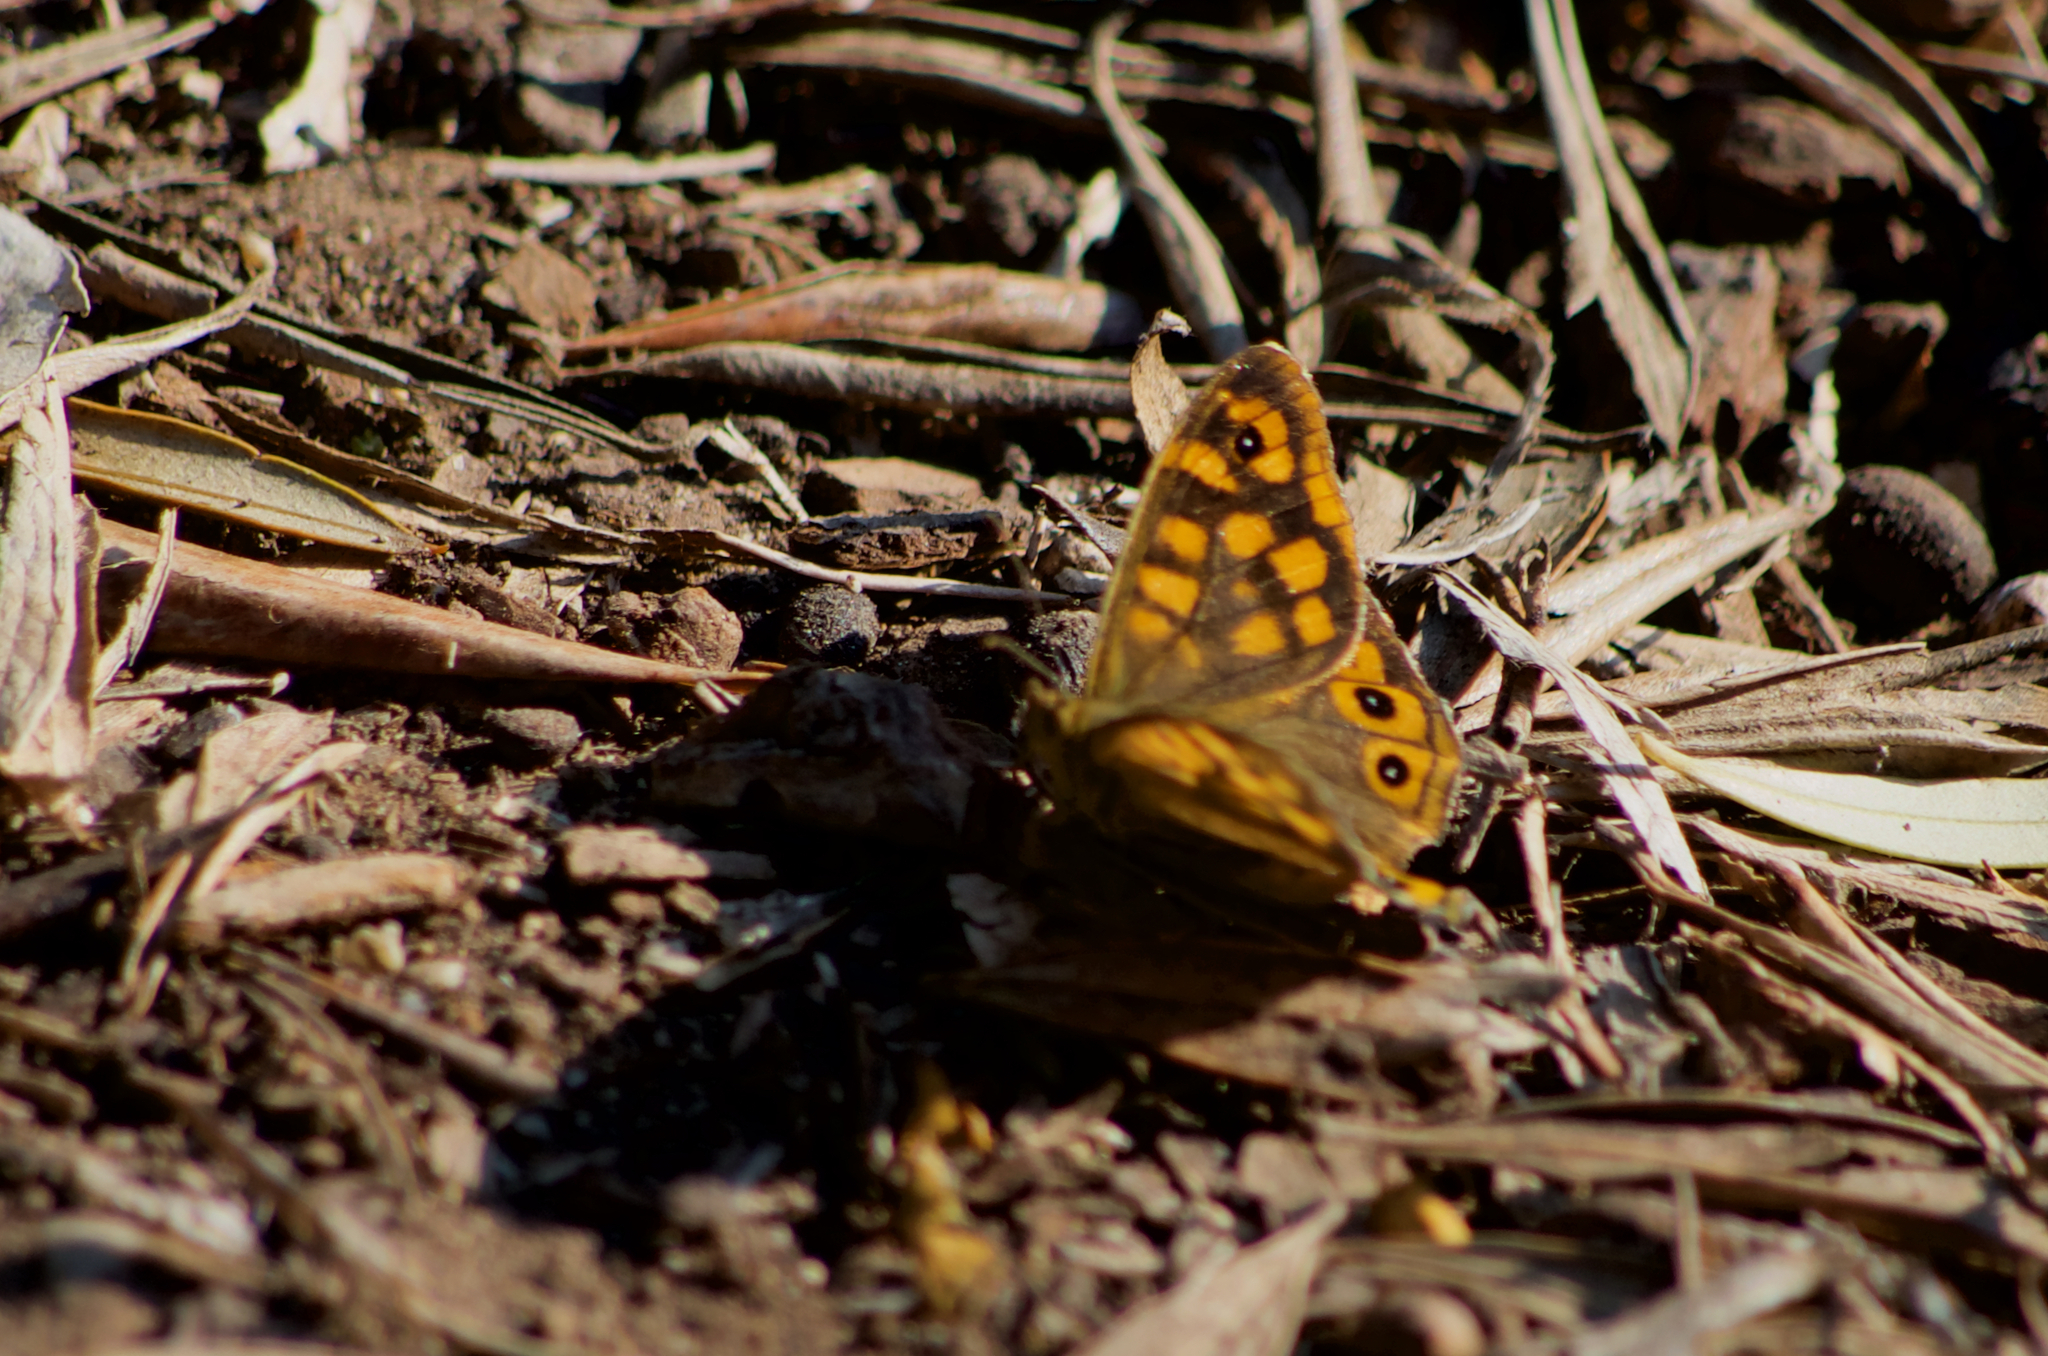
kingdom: Animalia
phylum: Arthropoda
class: Insecta
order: Lepidoptera
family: Nymphalidae
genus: Pararge
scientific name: Pararge aegeria
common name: Speckled wood
